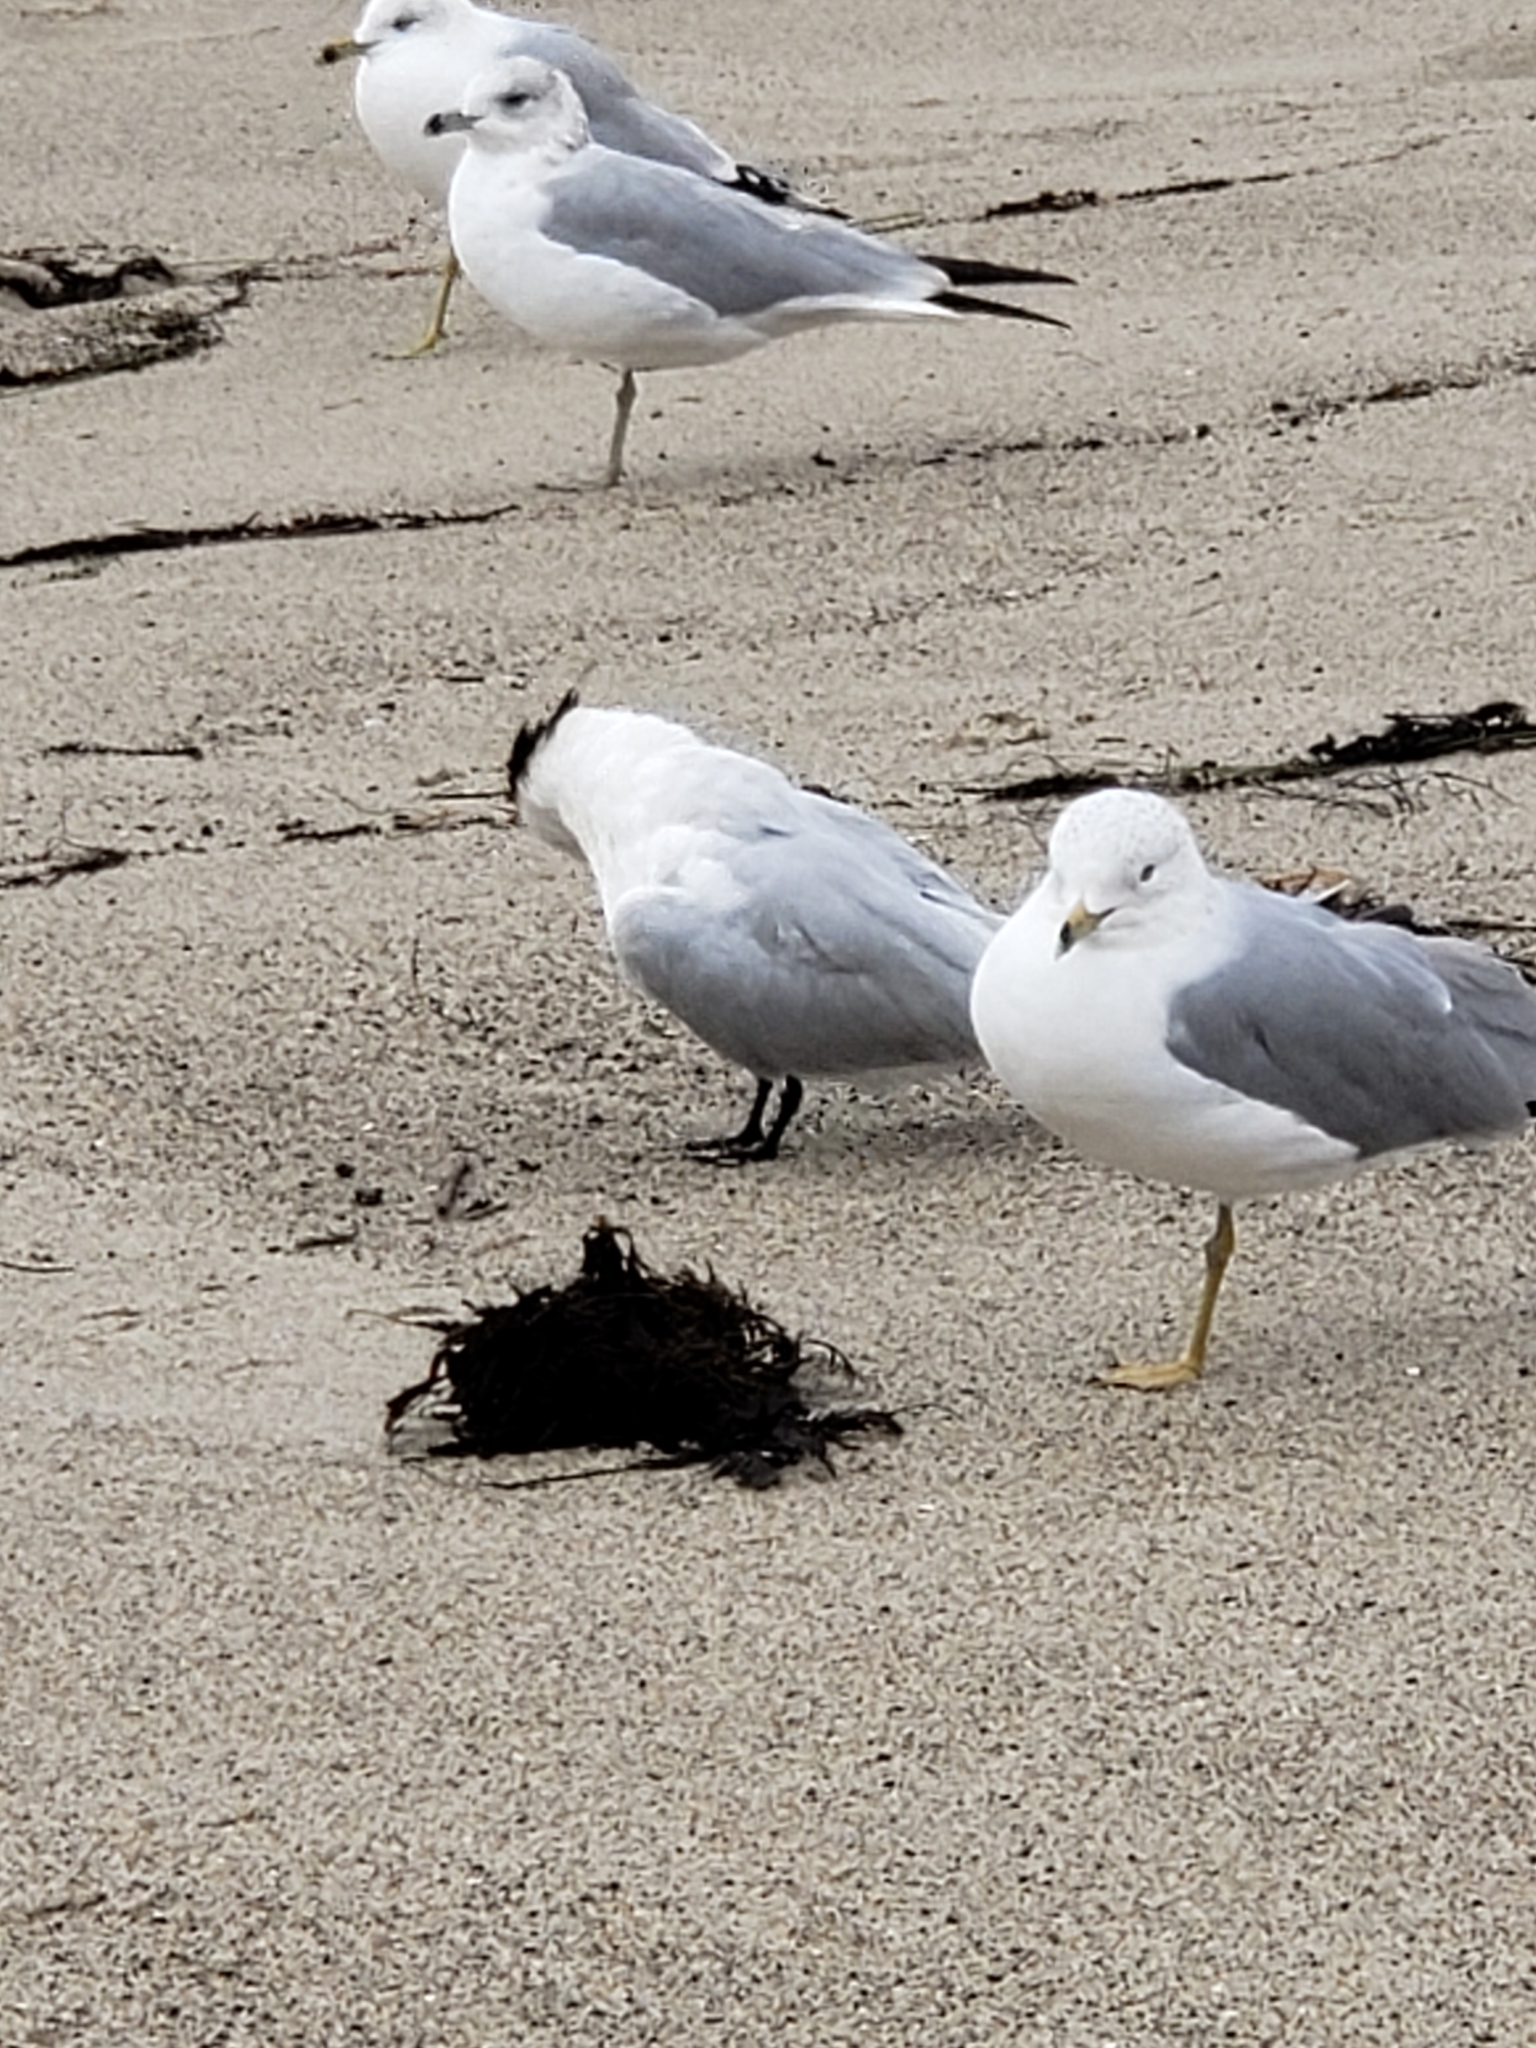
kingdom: Animalia
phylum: Chordata
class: Aves
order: Charadriiformes
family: Laridae
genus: Thalasseus
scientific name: Thalasseus maximus
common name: Royal tern
